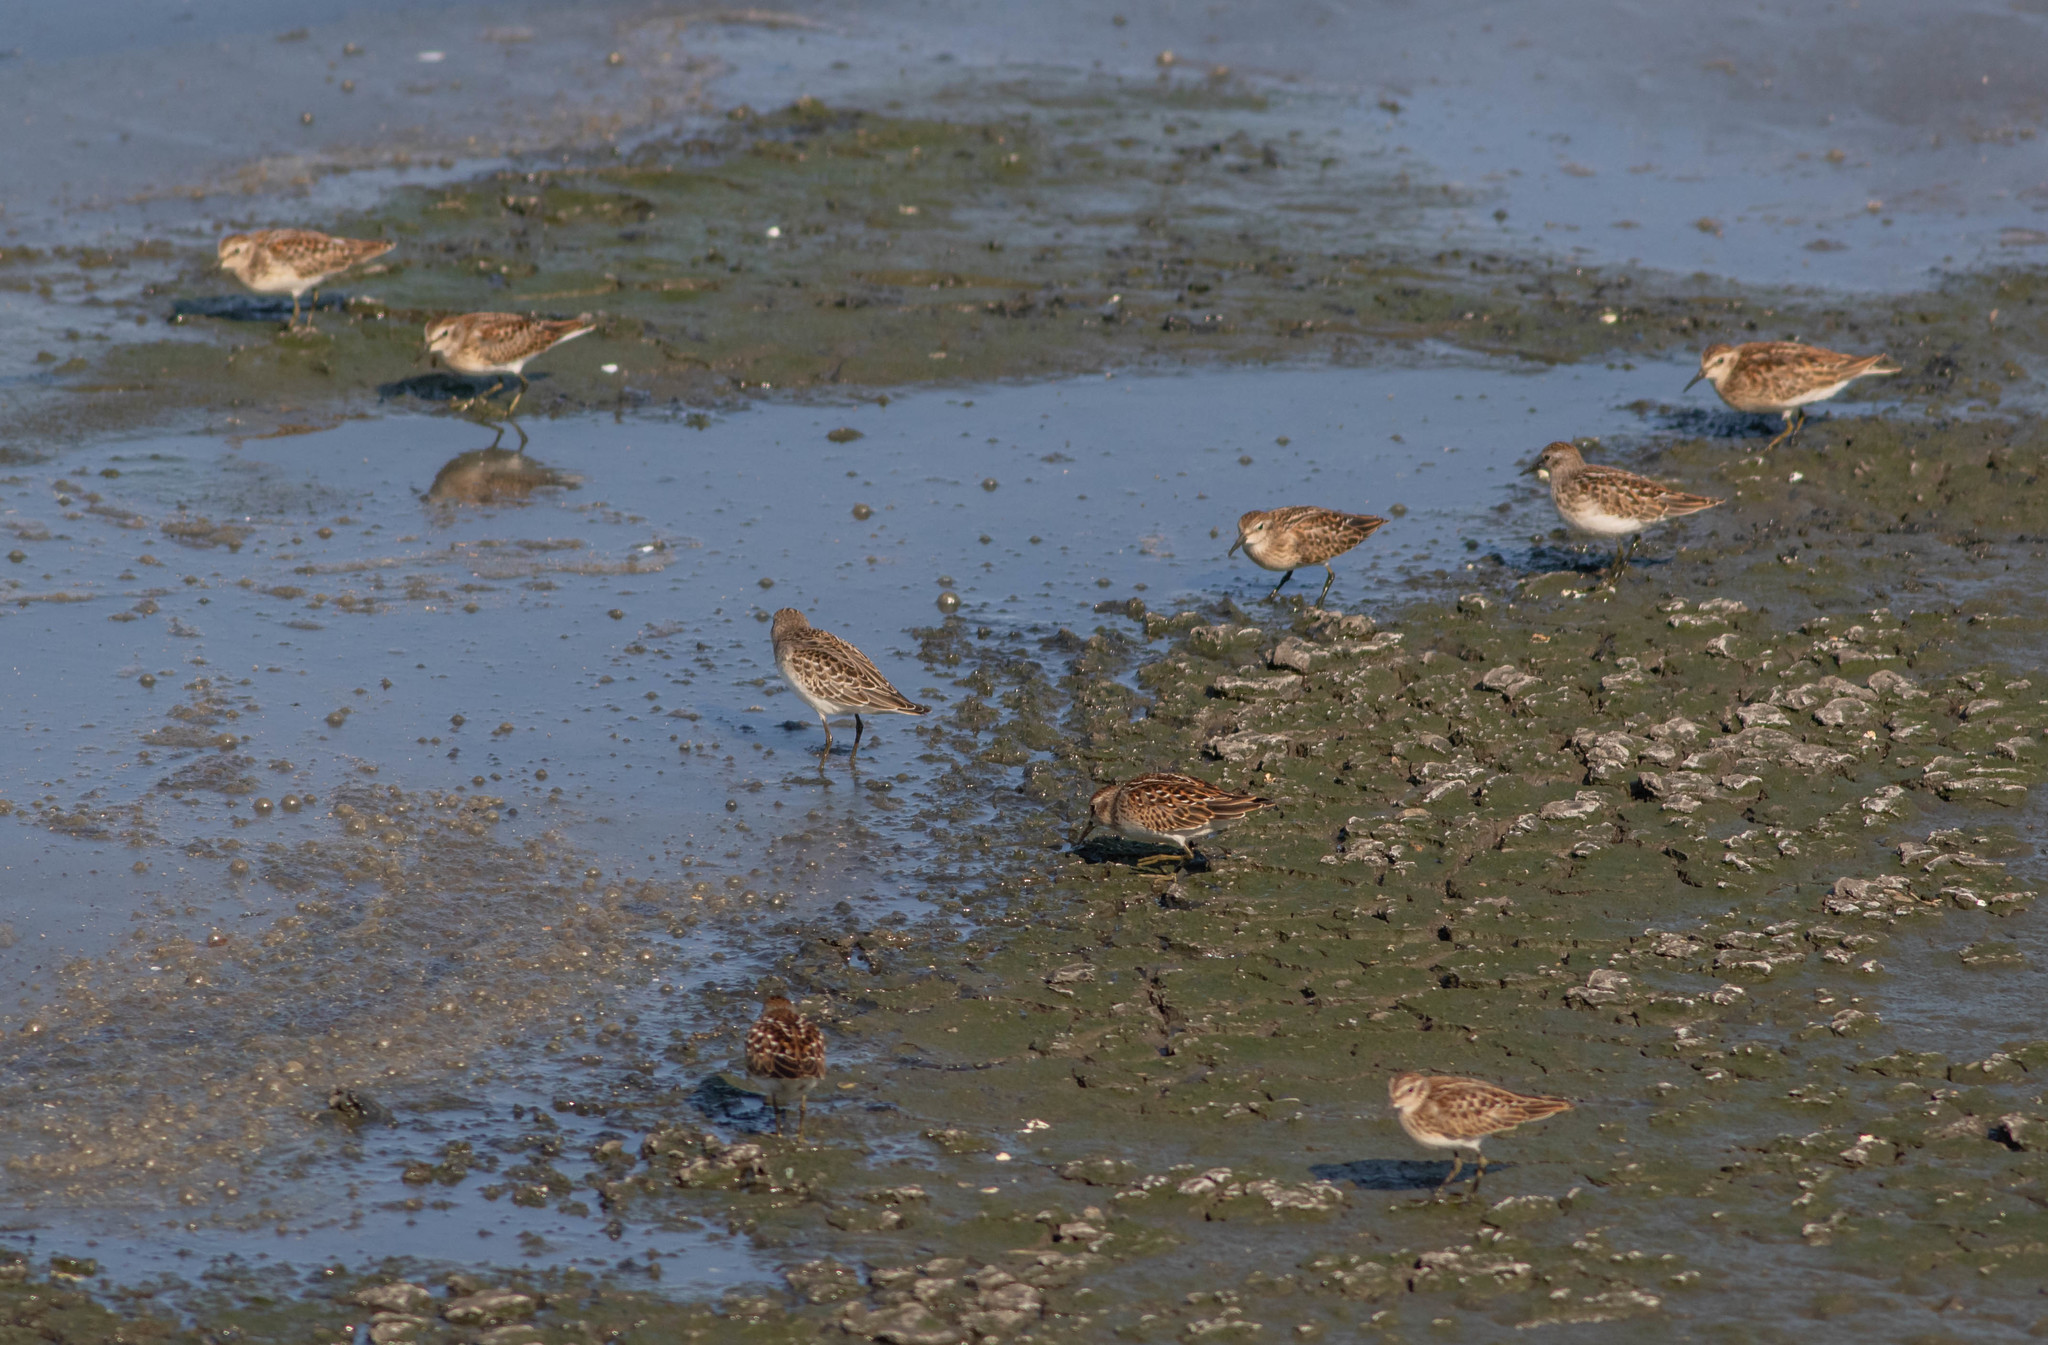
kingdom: Animalia
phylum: Chordata
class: Aves
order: Charadriiformes
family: Scolopacidae
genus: Calidris
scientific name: Calidris minutilla
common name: Least sandpiper
